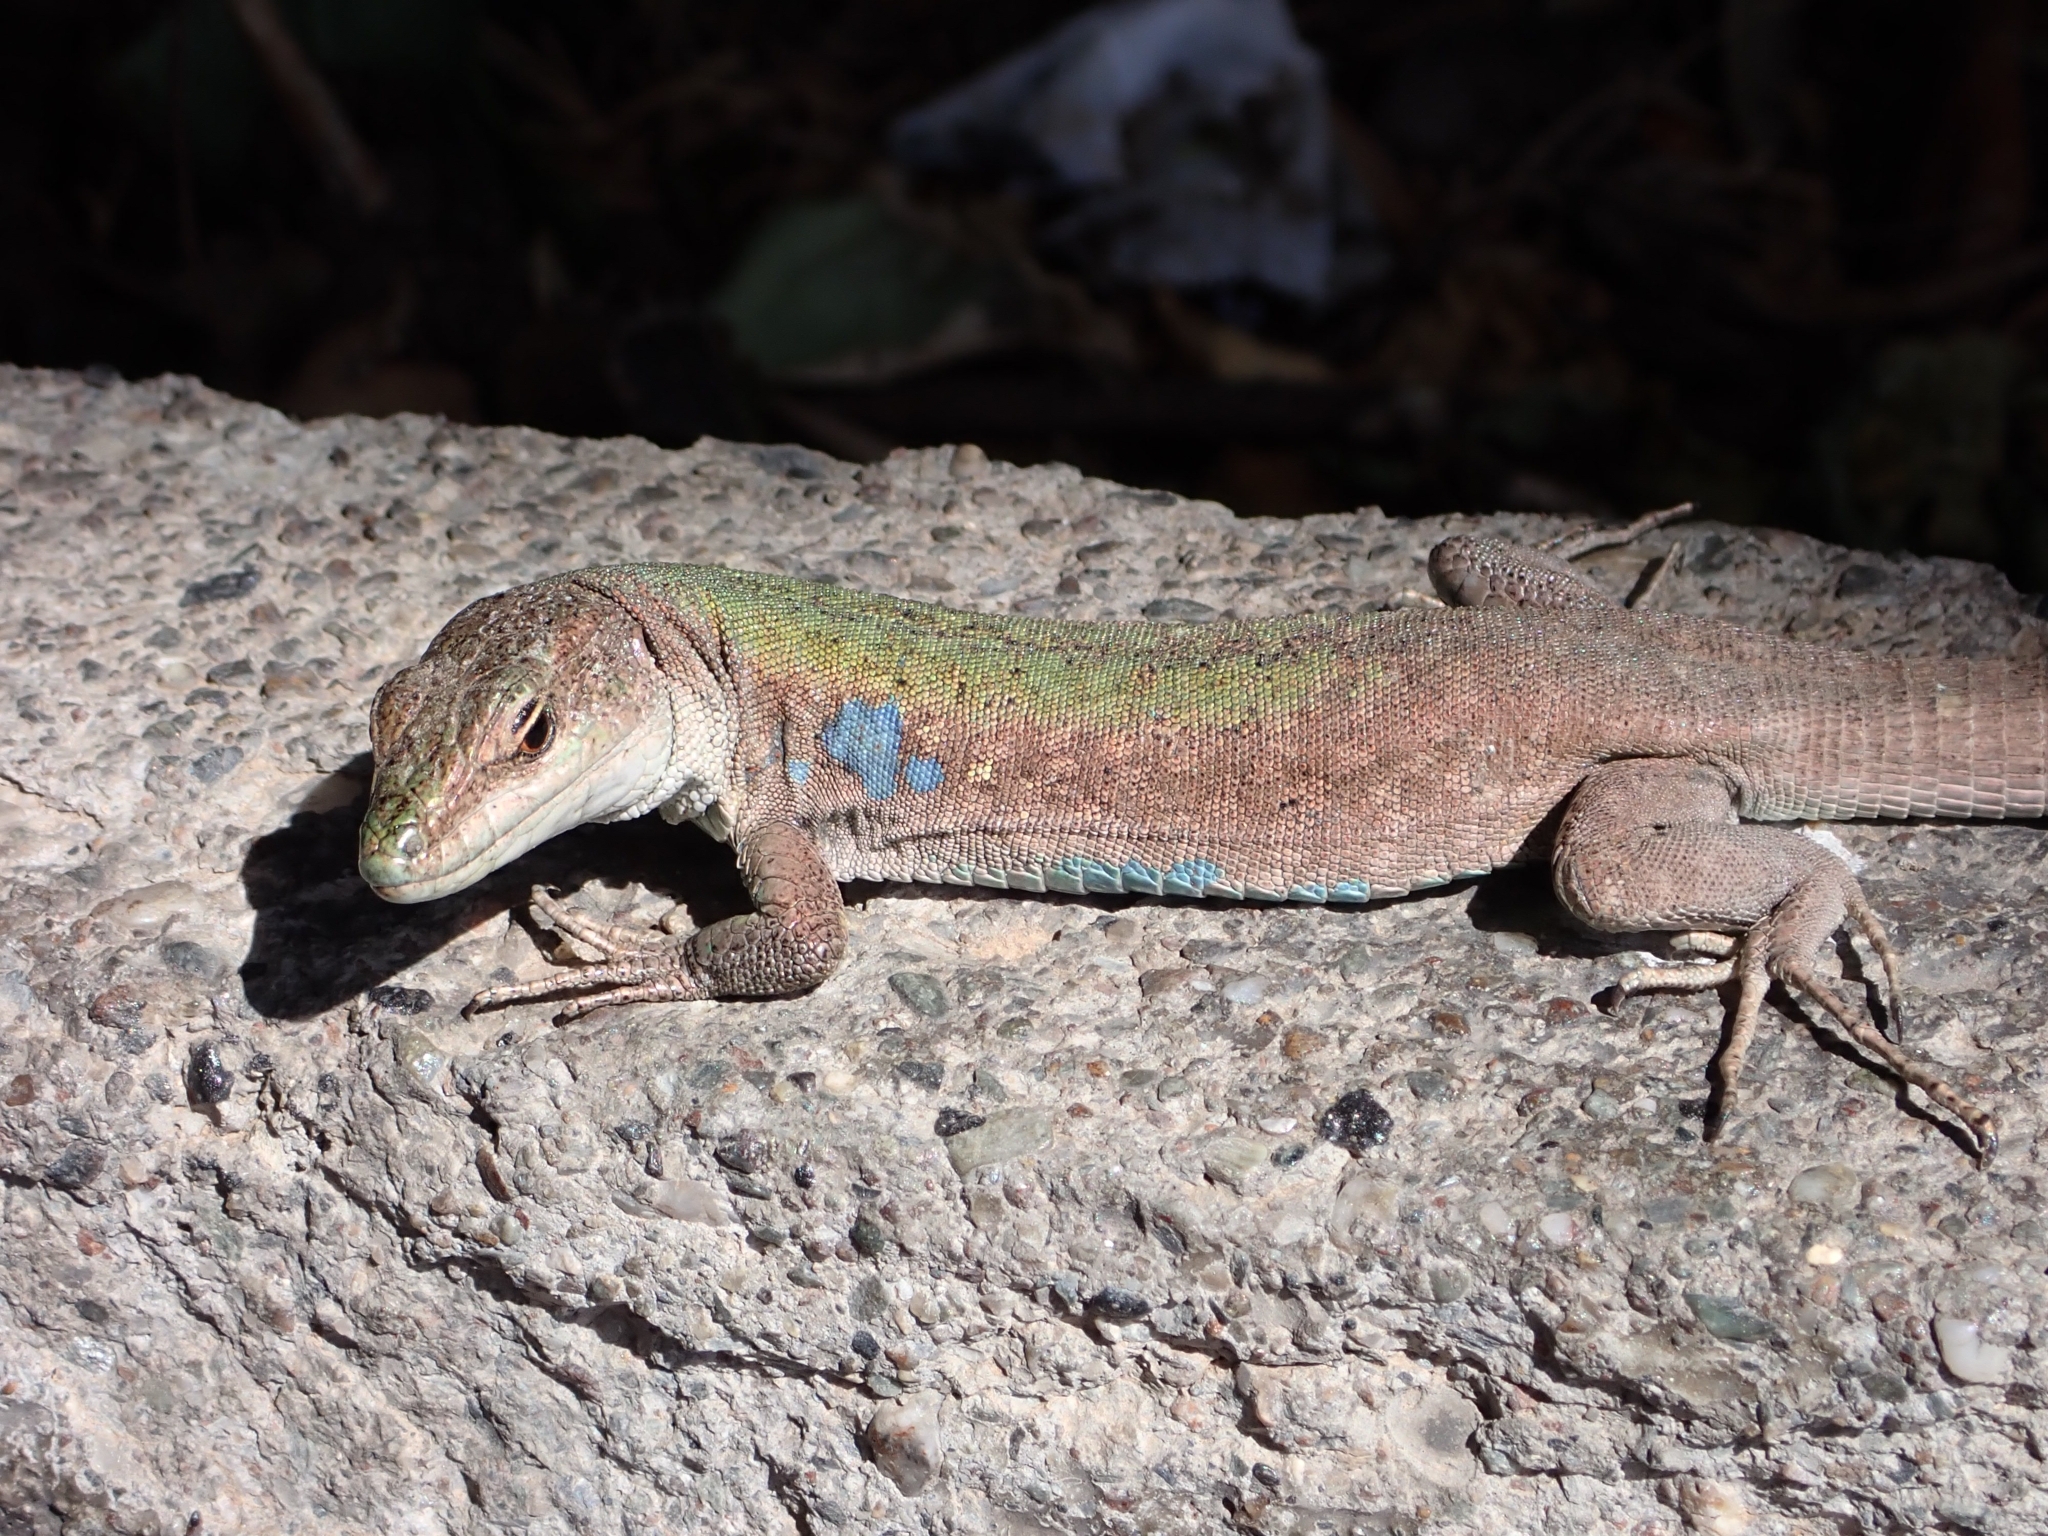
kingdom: Animalia
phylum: Chordata
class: Squamata
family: Lacertidae
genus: Podarcis
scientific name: Podarcis siculus
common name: Italian wall lizard
